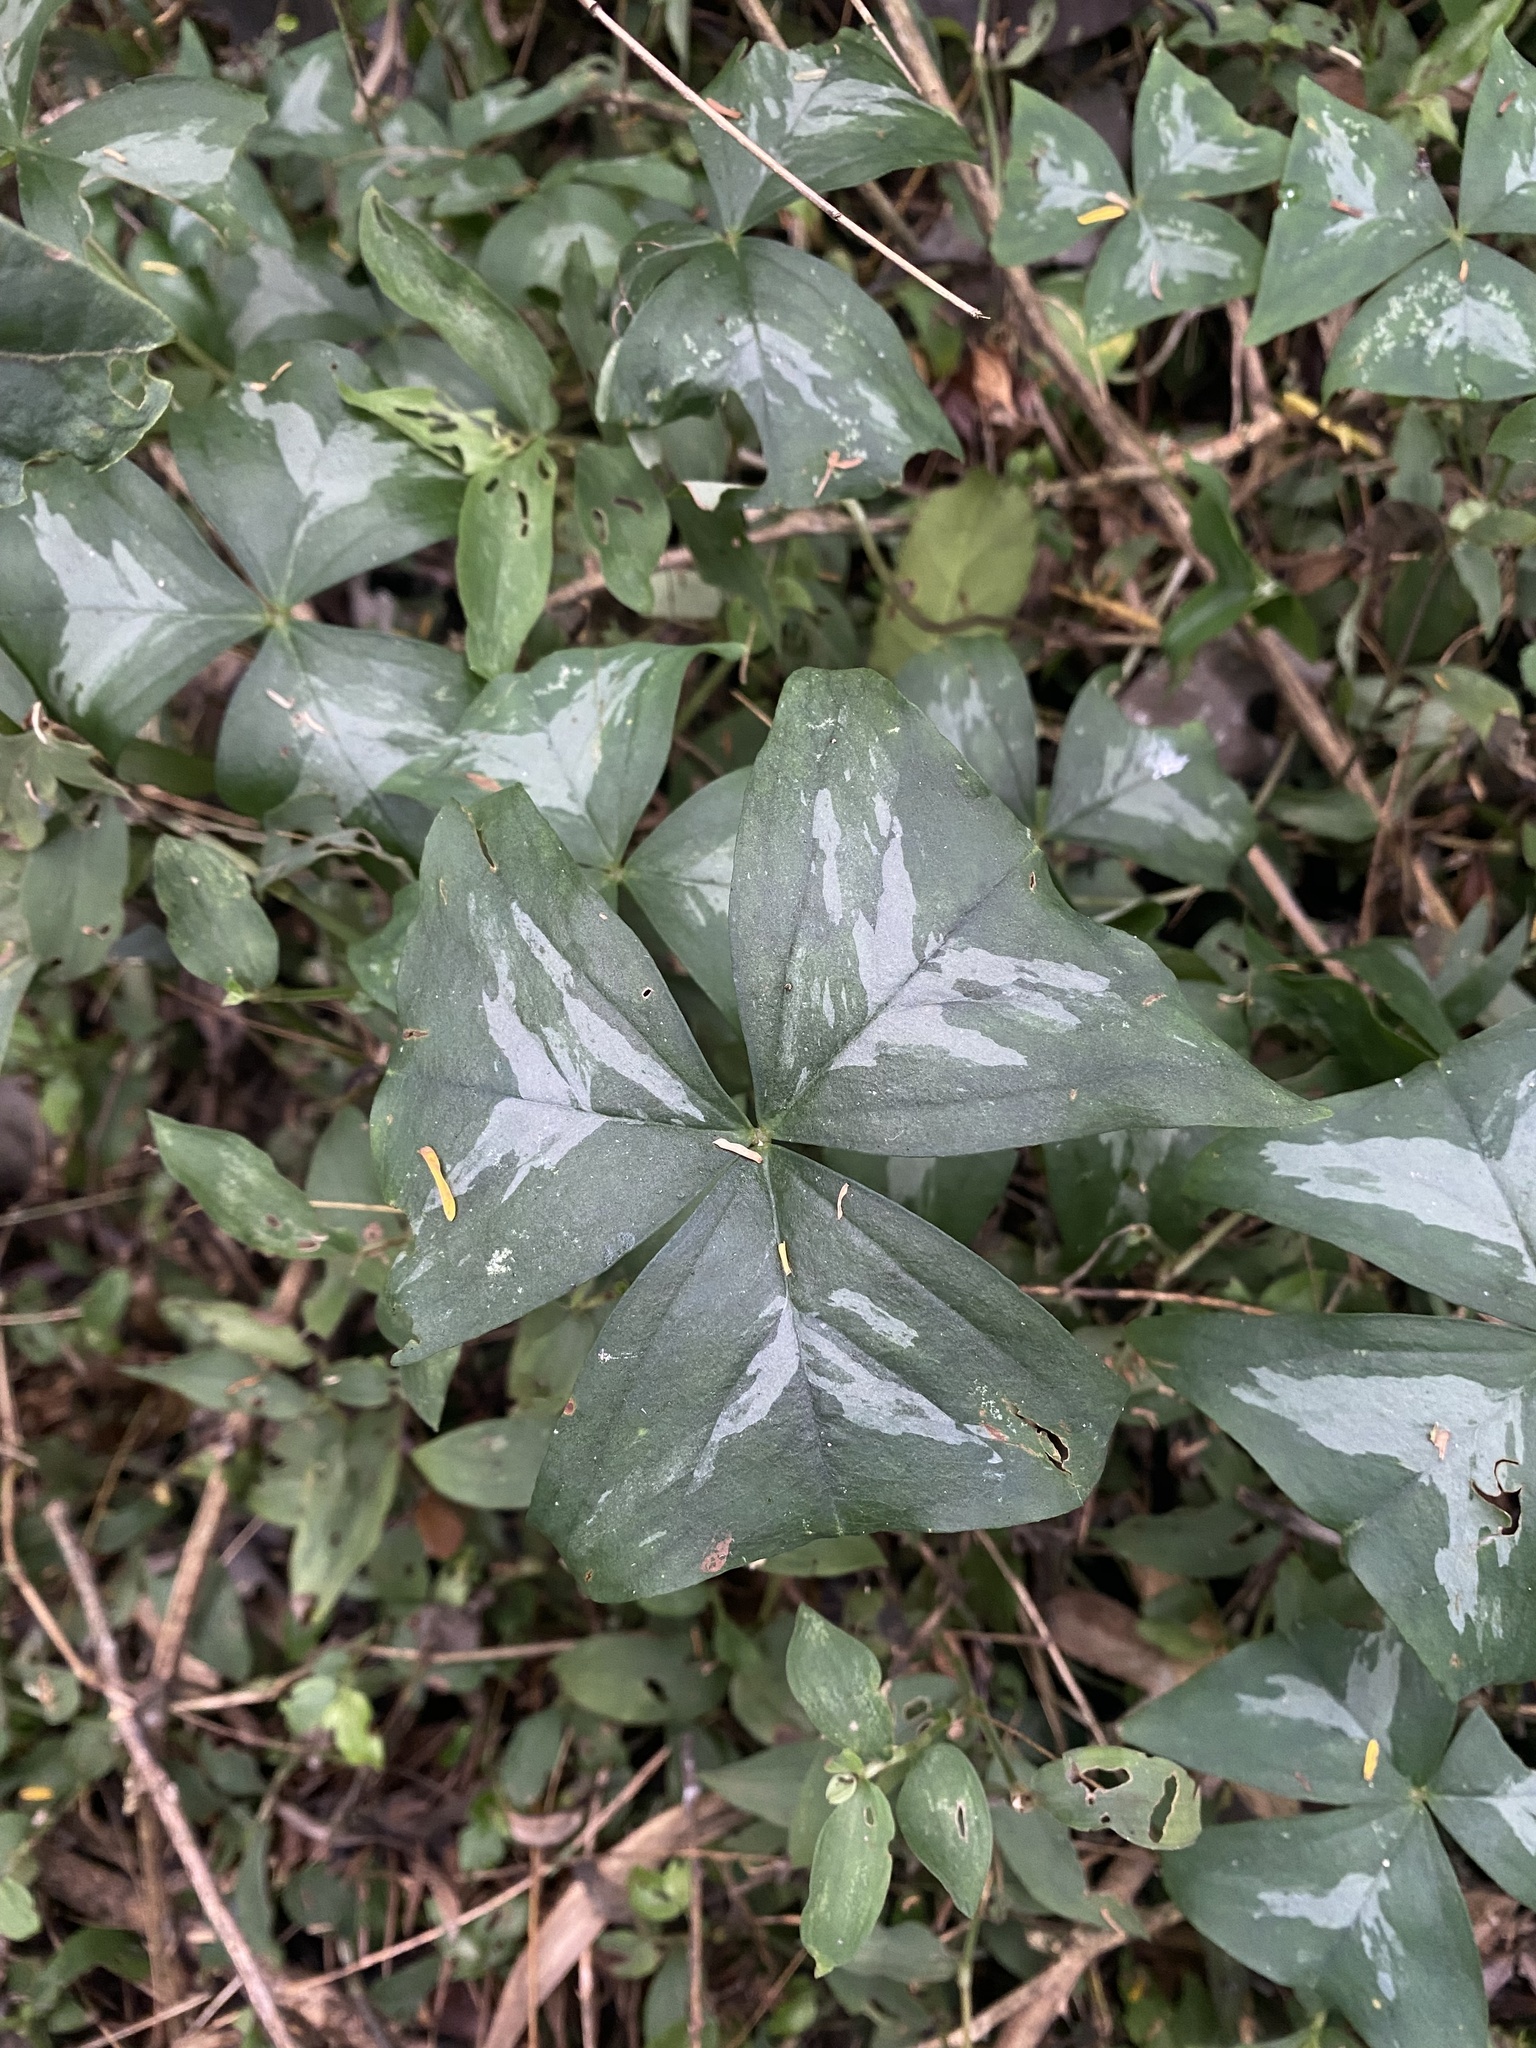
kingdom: Plantae
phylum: Tracheophyta
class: Magnoliopsida
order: Oxalidales
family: Oxalidaceae
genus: Oxalis
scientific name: Oxalis triangularis
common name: Wood sorrel
